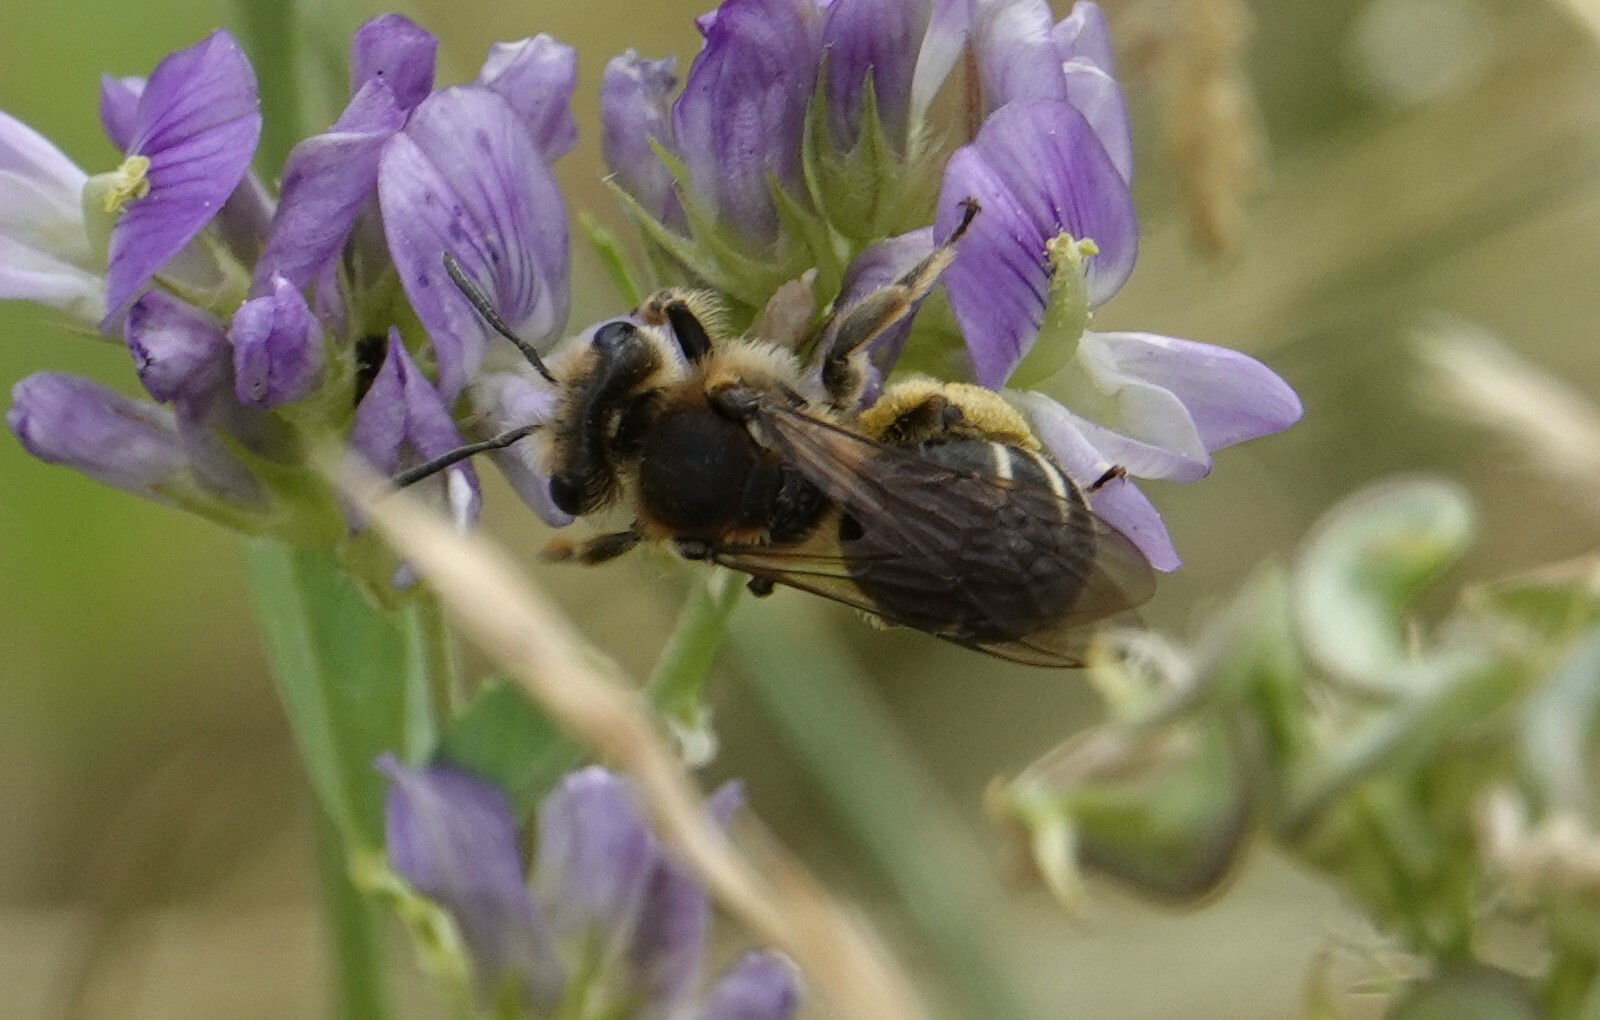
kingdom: Animalia
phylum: Arthropoda
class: Insecta
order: Hymenoptera
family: Andrenidae
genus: Andrena
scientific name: Andrena wilkella
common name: Wilke's mining bee
